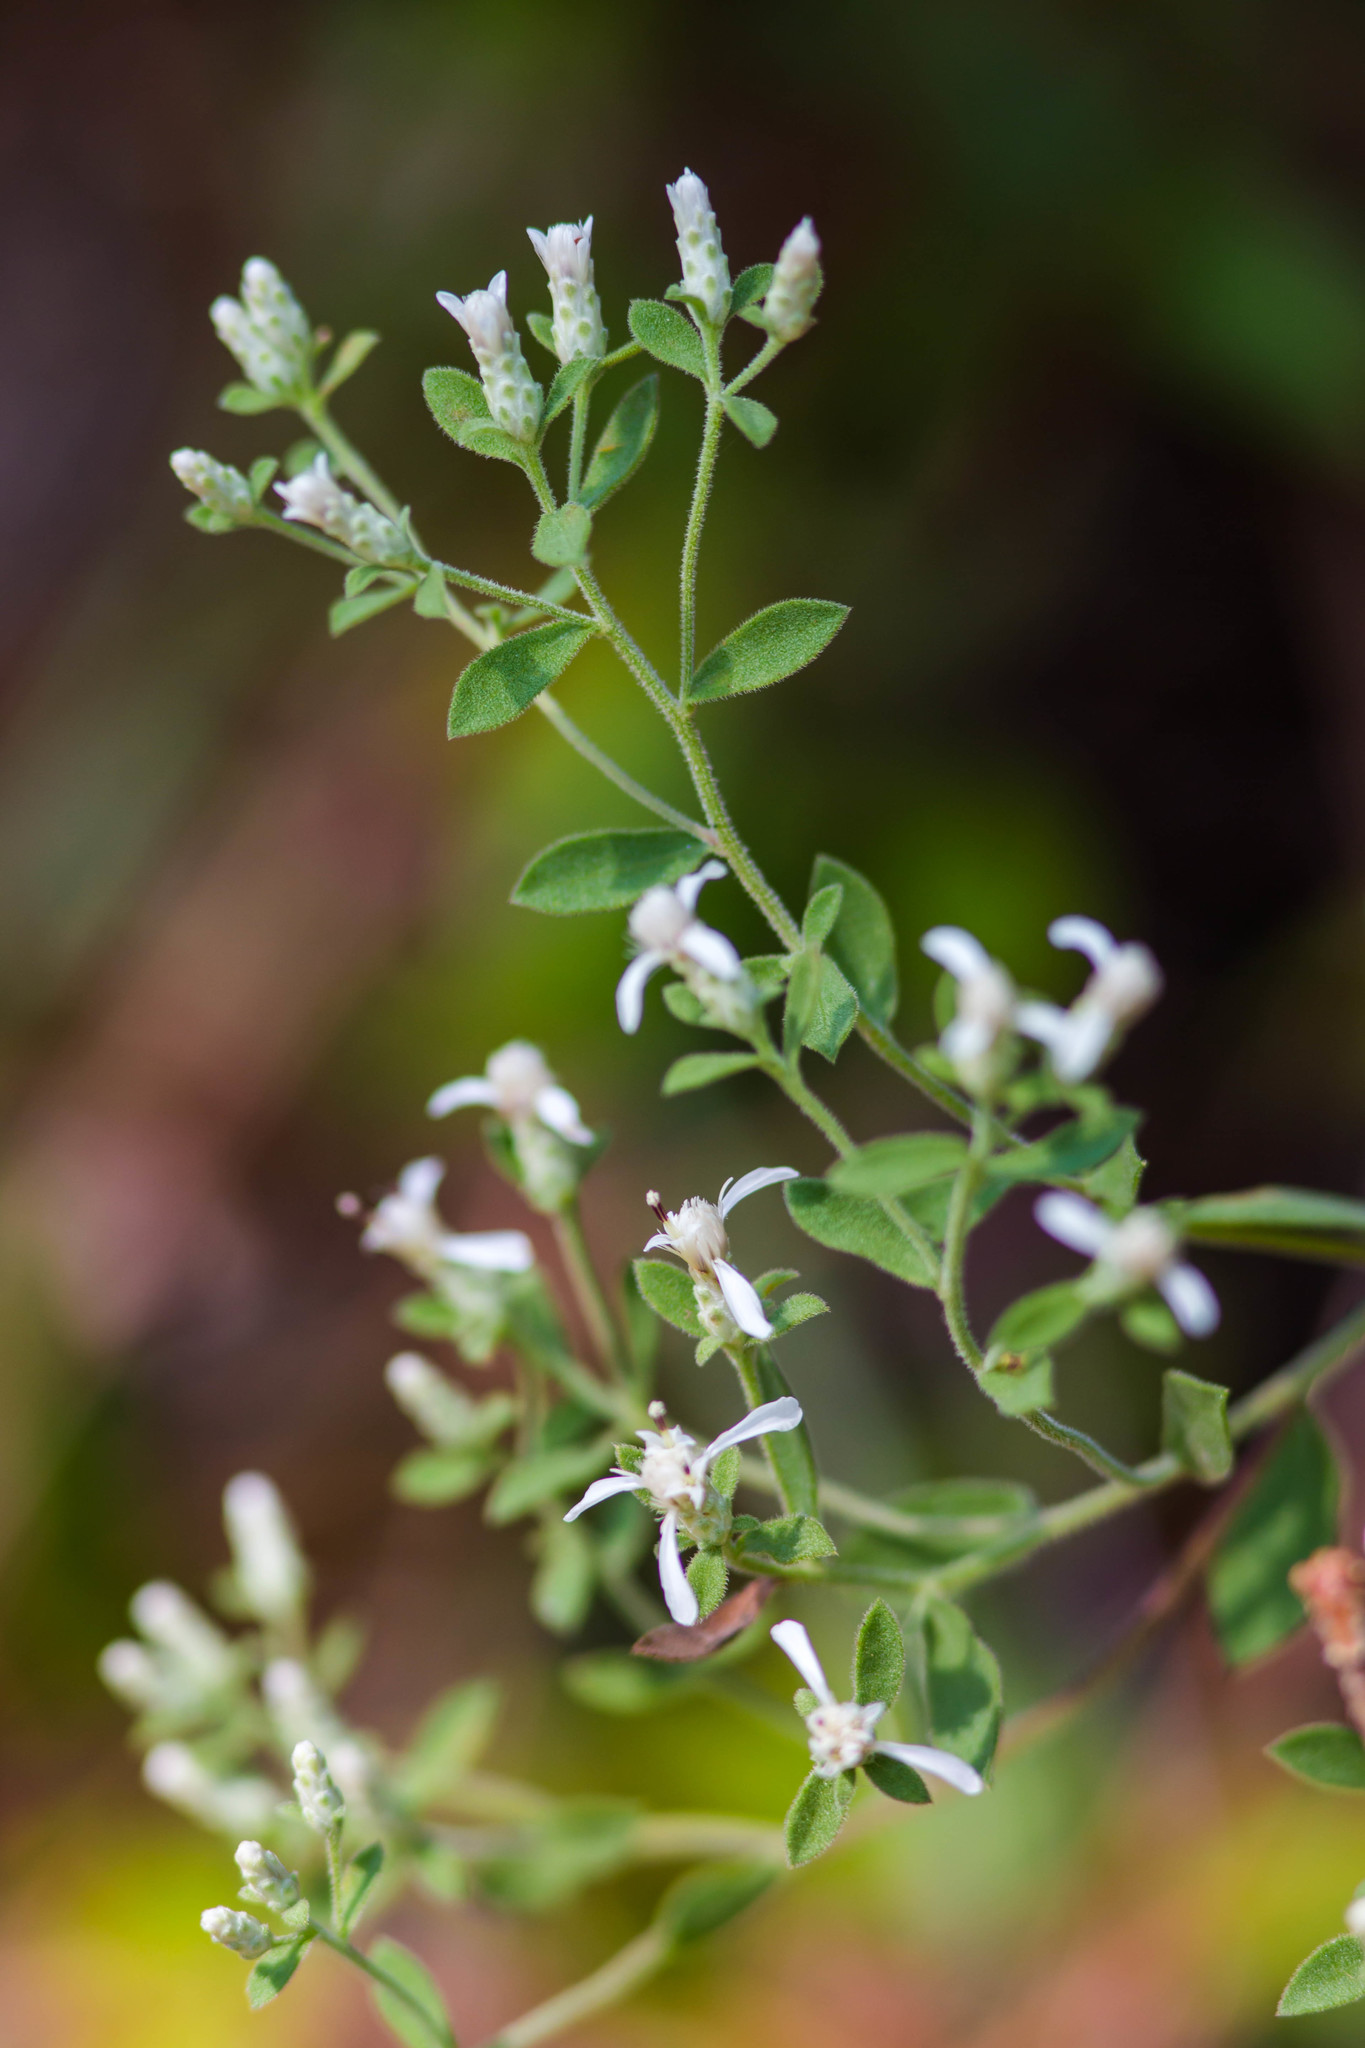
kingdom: Plantae
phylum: Tracheophyta
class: Magnoliopsida
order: Asterales
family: Asteraceae
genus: Sericocarpus
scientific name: Sericocarpus tortifolius
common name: Dixie aster
